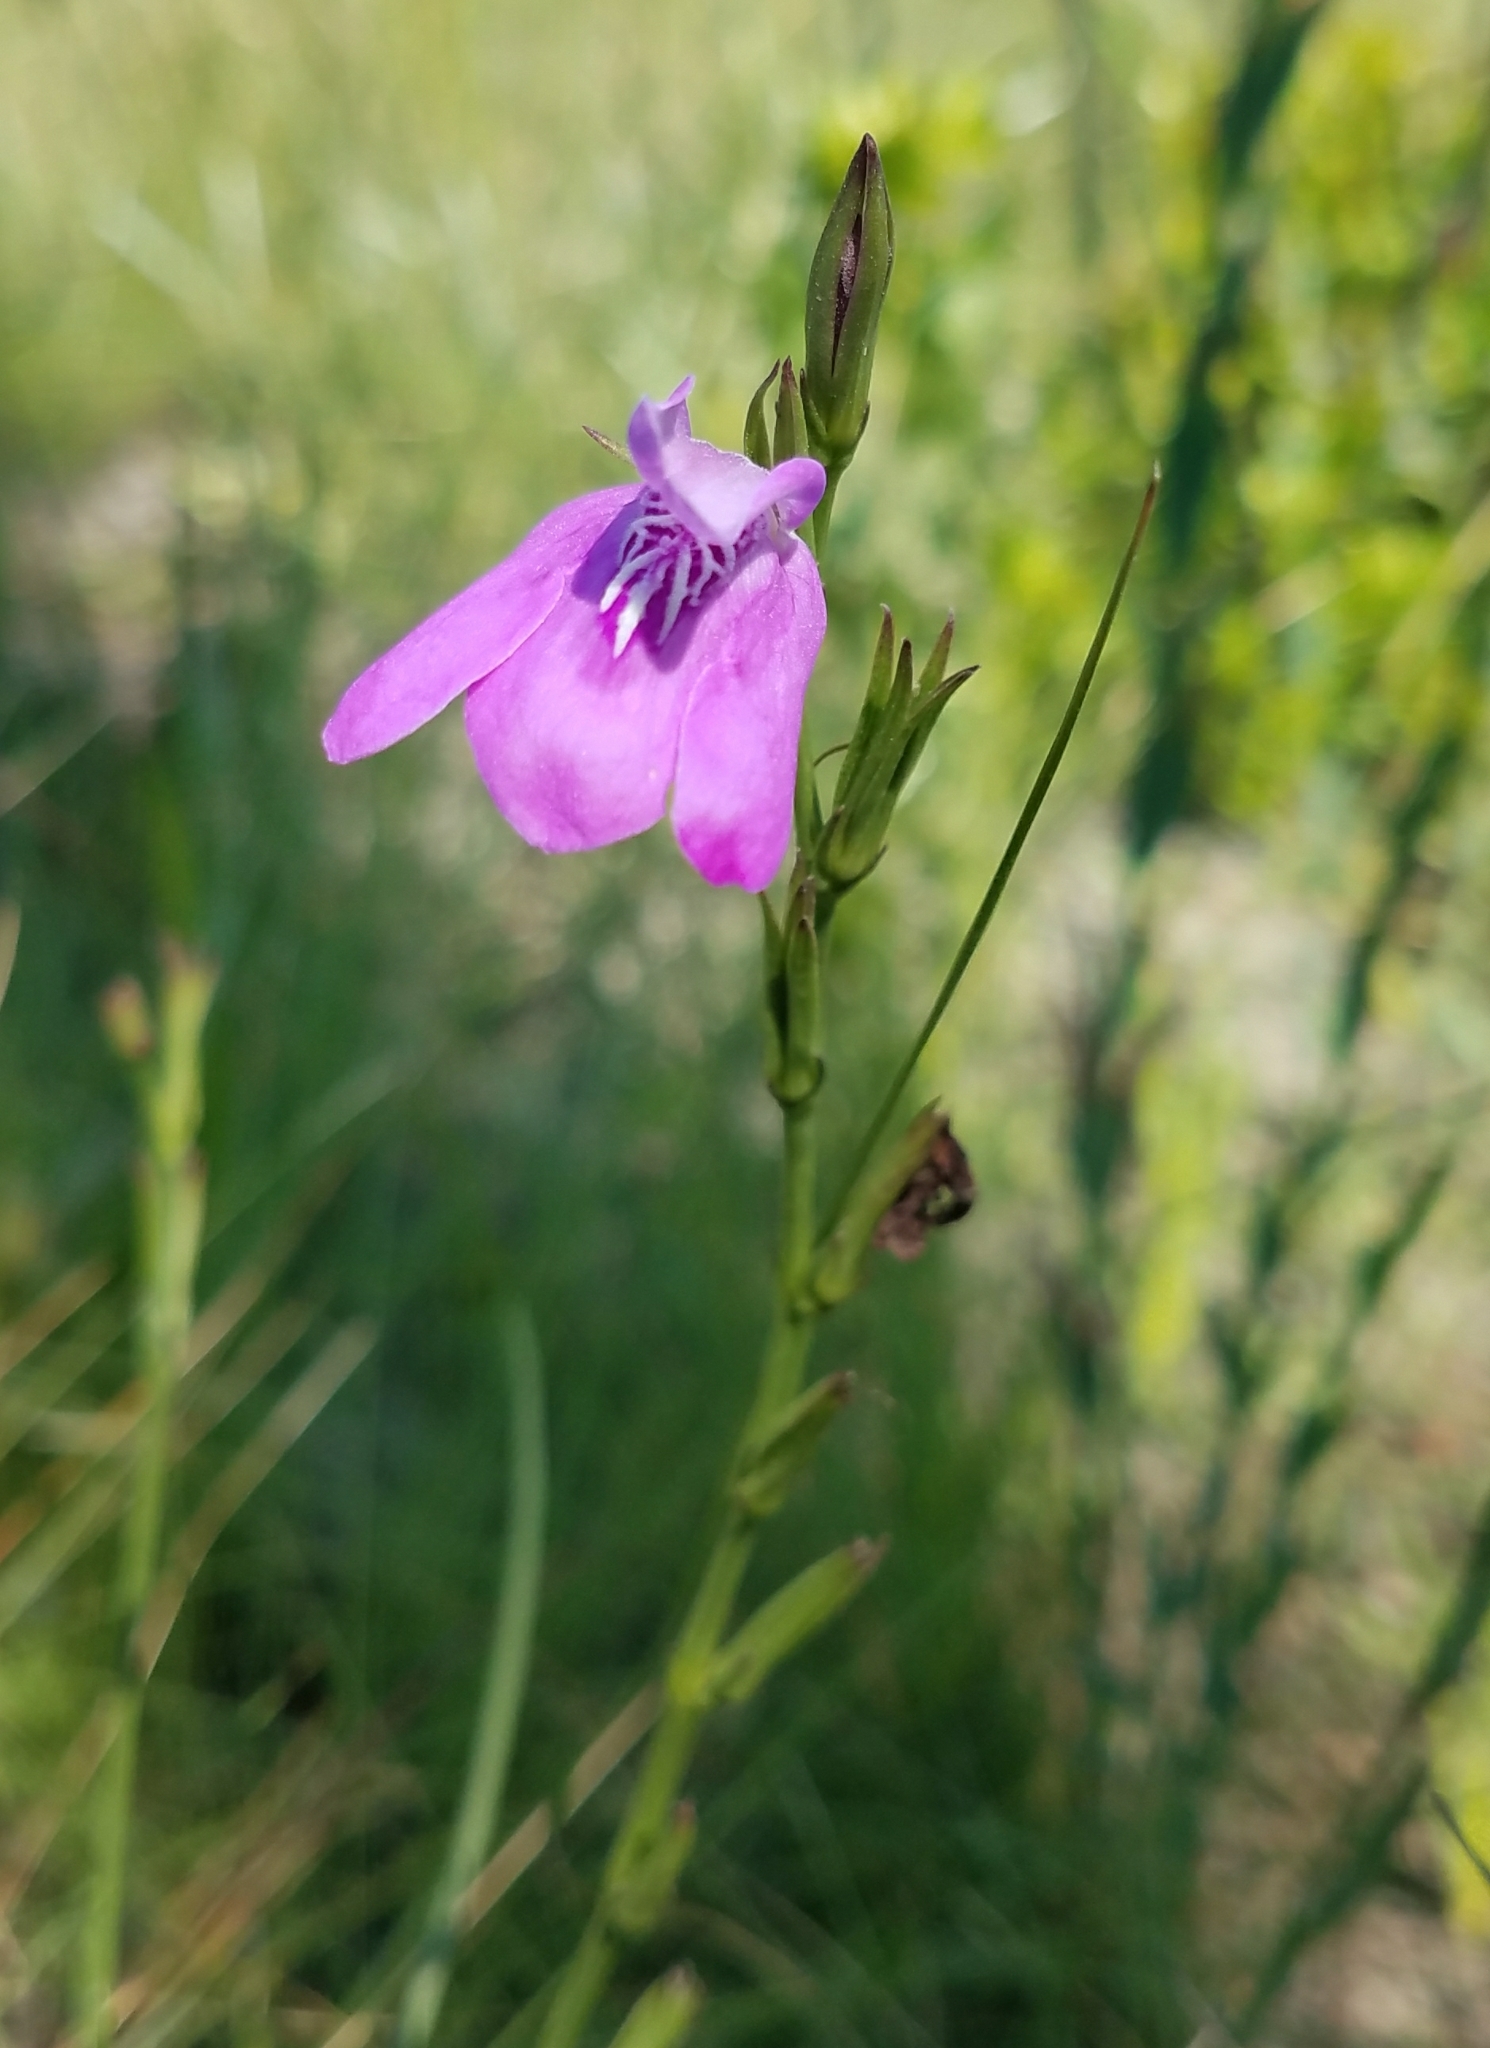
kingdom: Plantae
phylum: Tracheophyta
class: Magnoliopsida
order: Lamiales
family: Acanthaceae
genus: Dianthera
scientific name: Dianthera crassifolia
